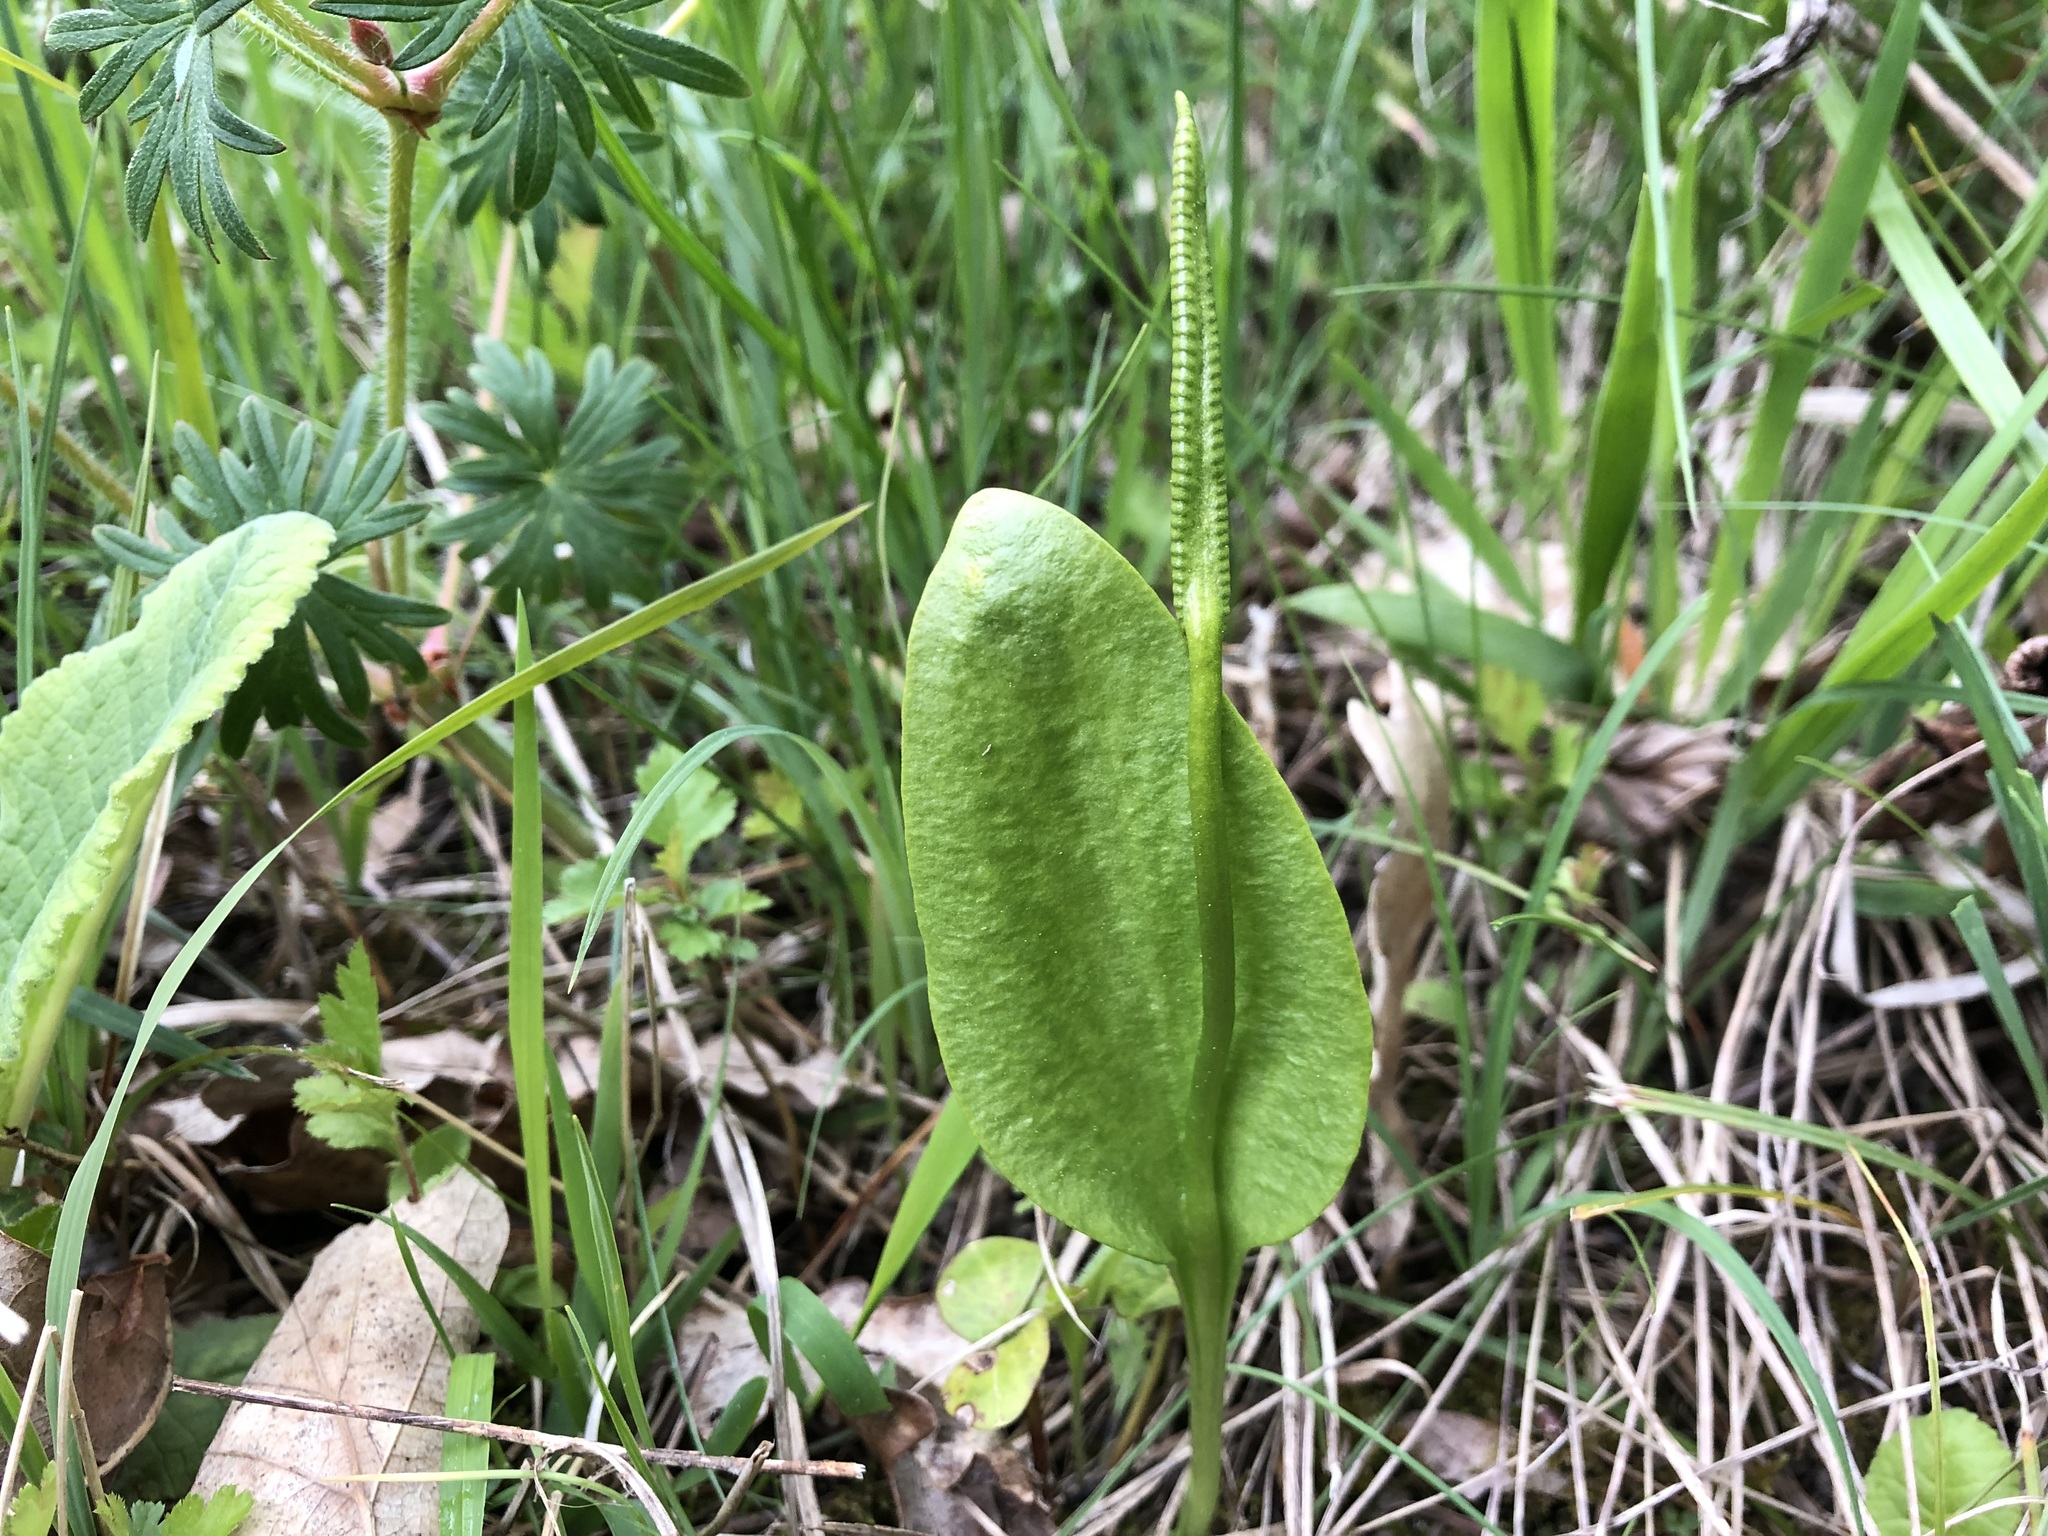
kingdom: Plantae
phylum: Tracheophyta
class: Polypodiopsida
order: Ophioglossales
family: Ophioglossaceae
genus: Ophioglossum
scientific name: Ophioglossum vulgatum
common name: Adder's-tongue
